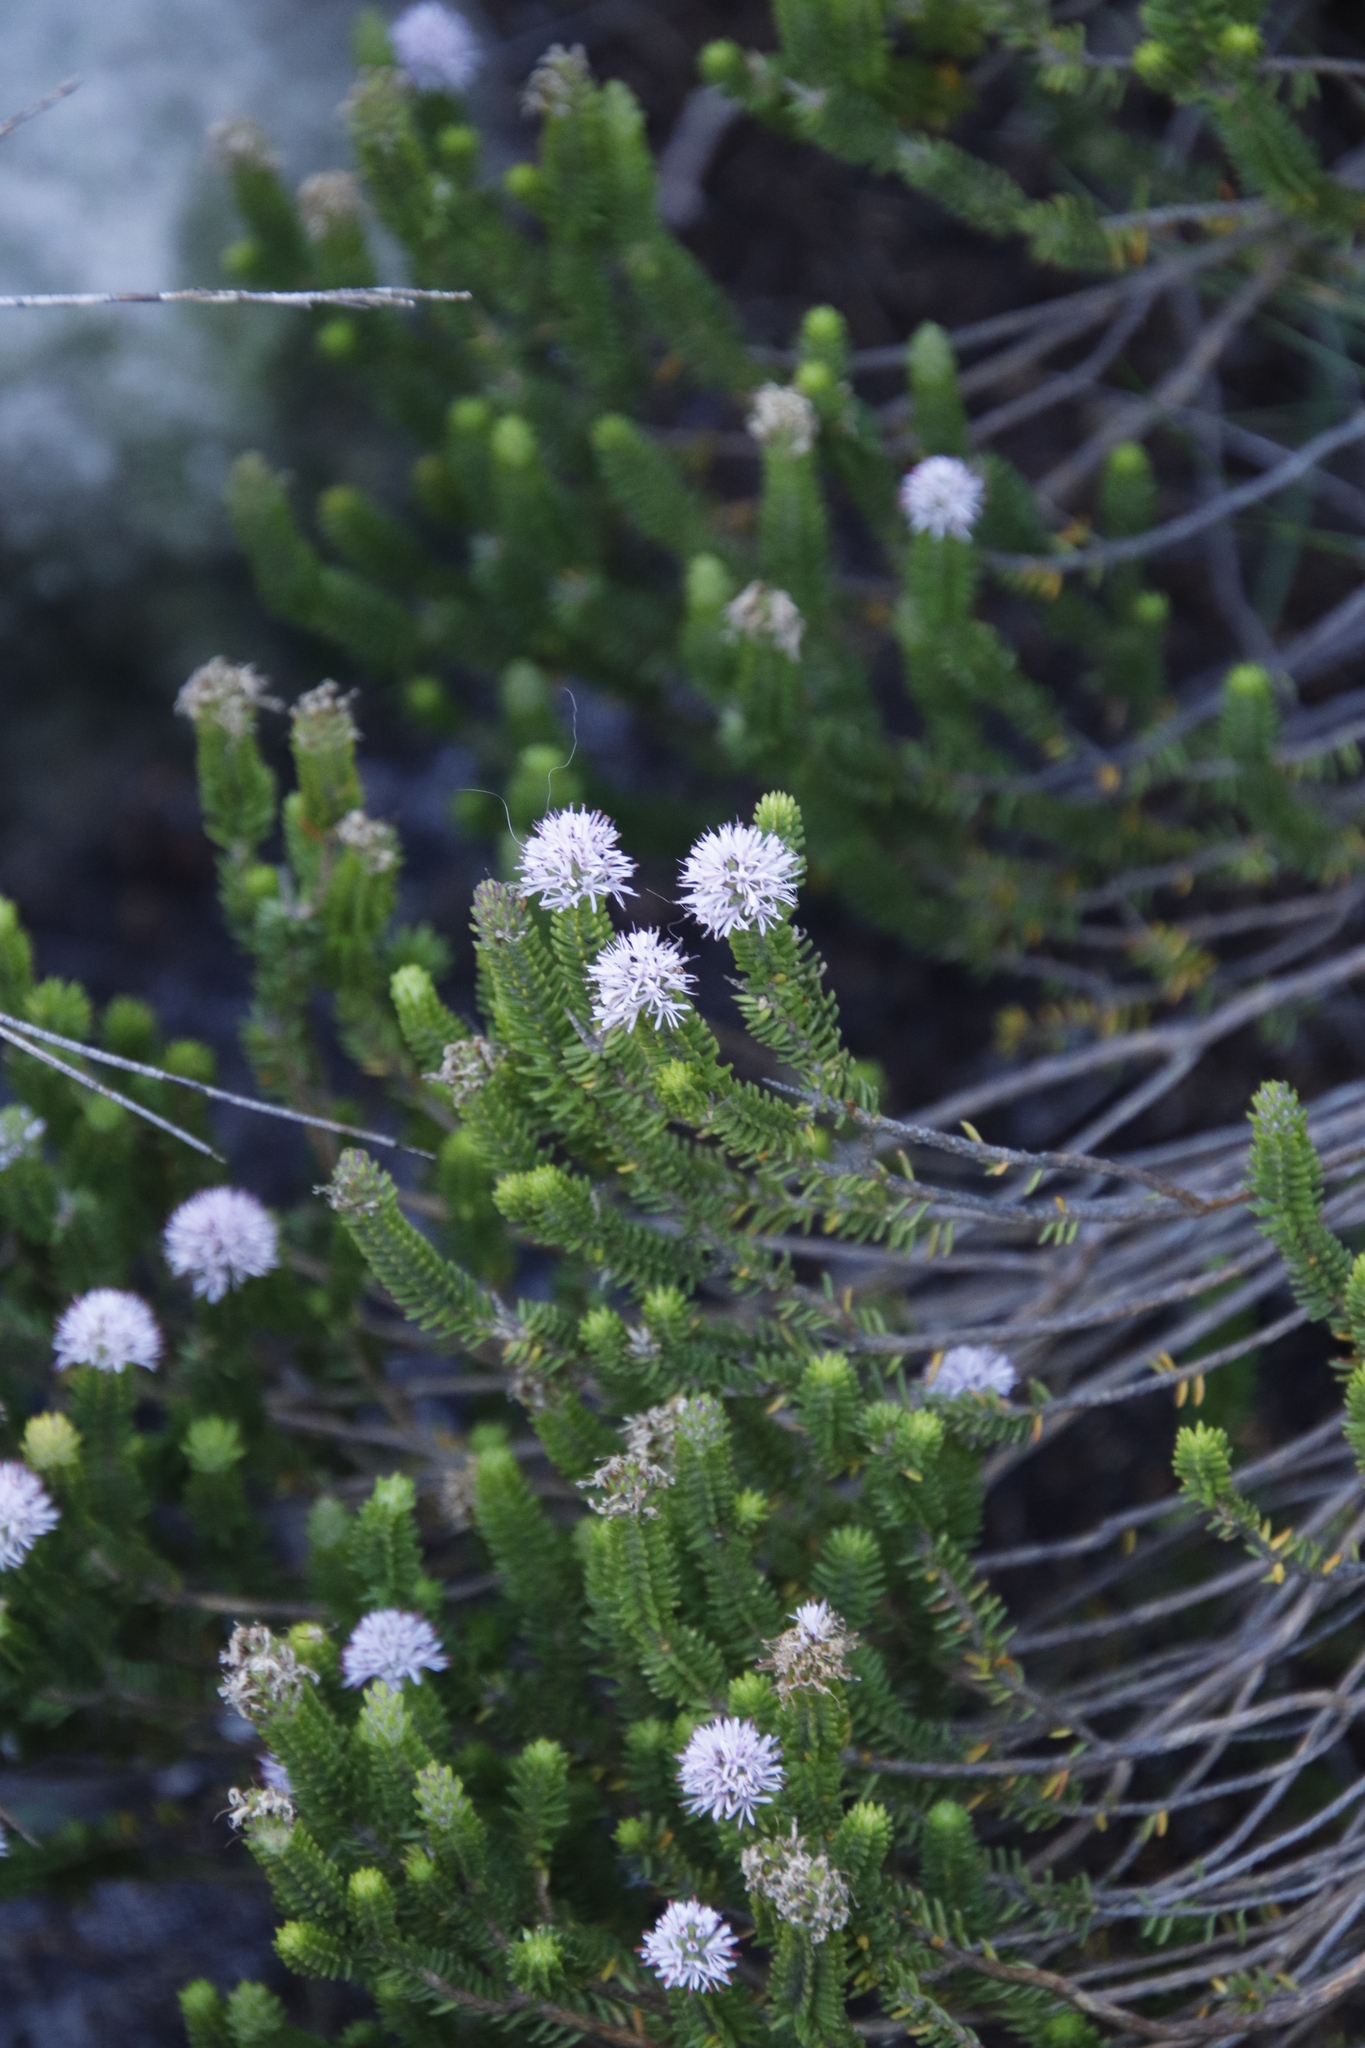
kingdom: Plantae
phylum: Tracheophyta
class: Magnoliopsida
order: Lamiales
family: Stilbaceae
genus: Stilbe
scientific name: Stilbe ericoides
